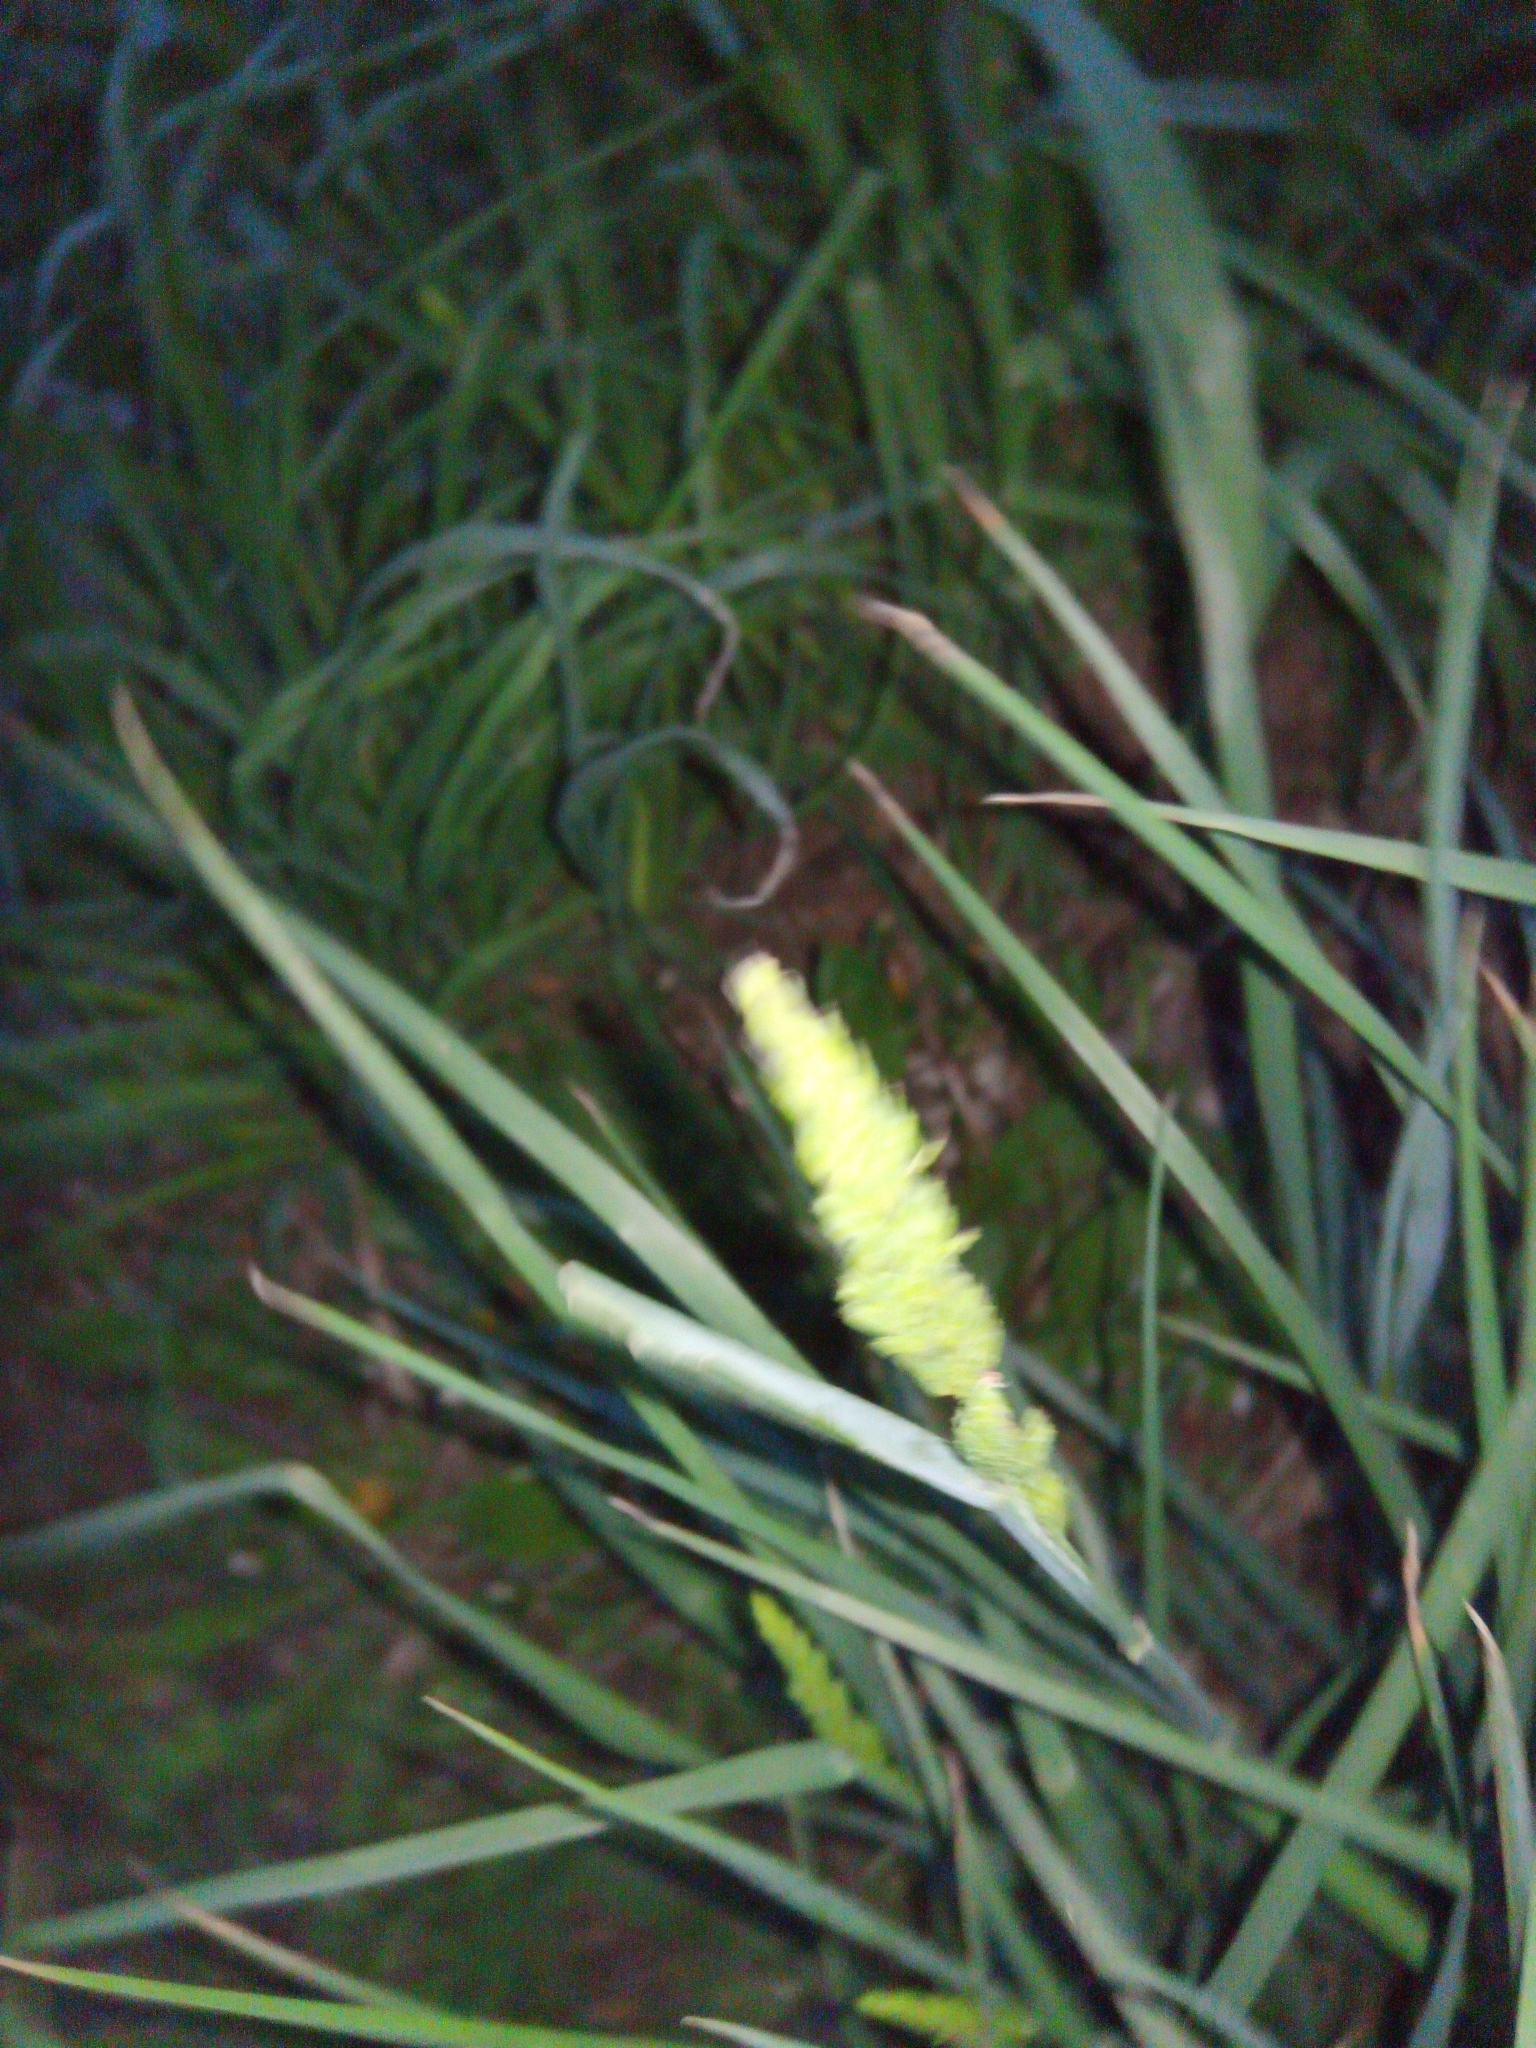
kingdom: Plantae
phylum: Tracheophyta
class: Liliopsida
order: Poales
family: Poaceae
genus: Dactylis
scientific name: Dactylis glomerata
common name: Orchardgrass
